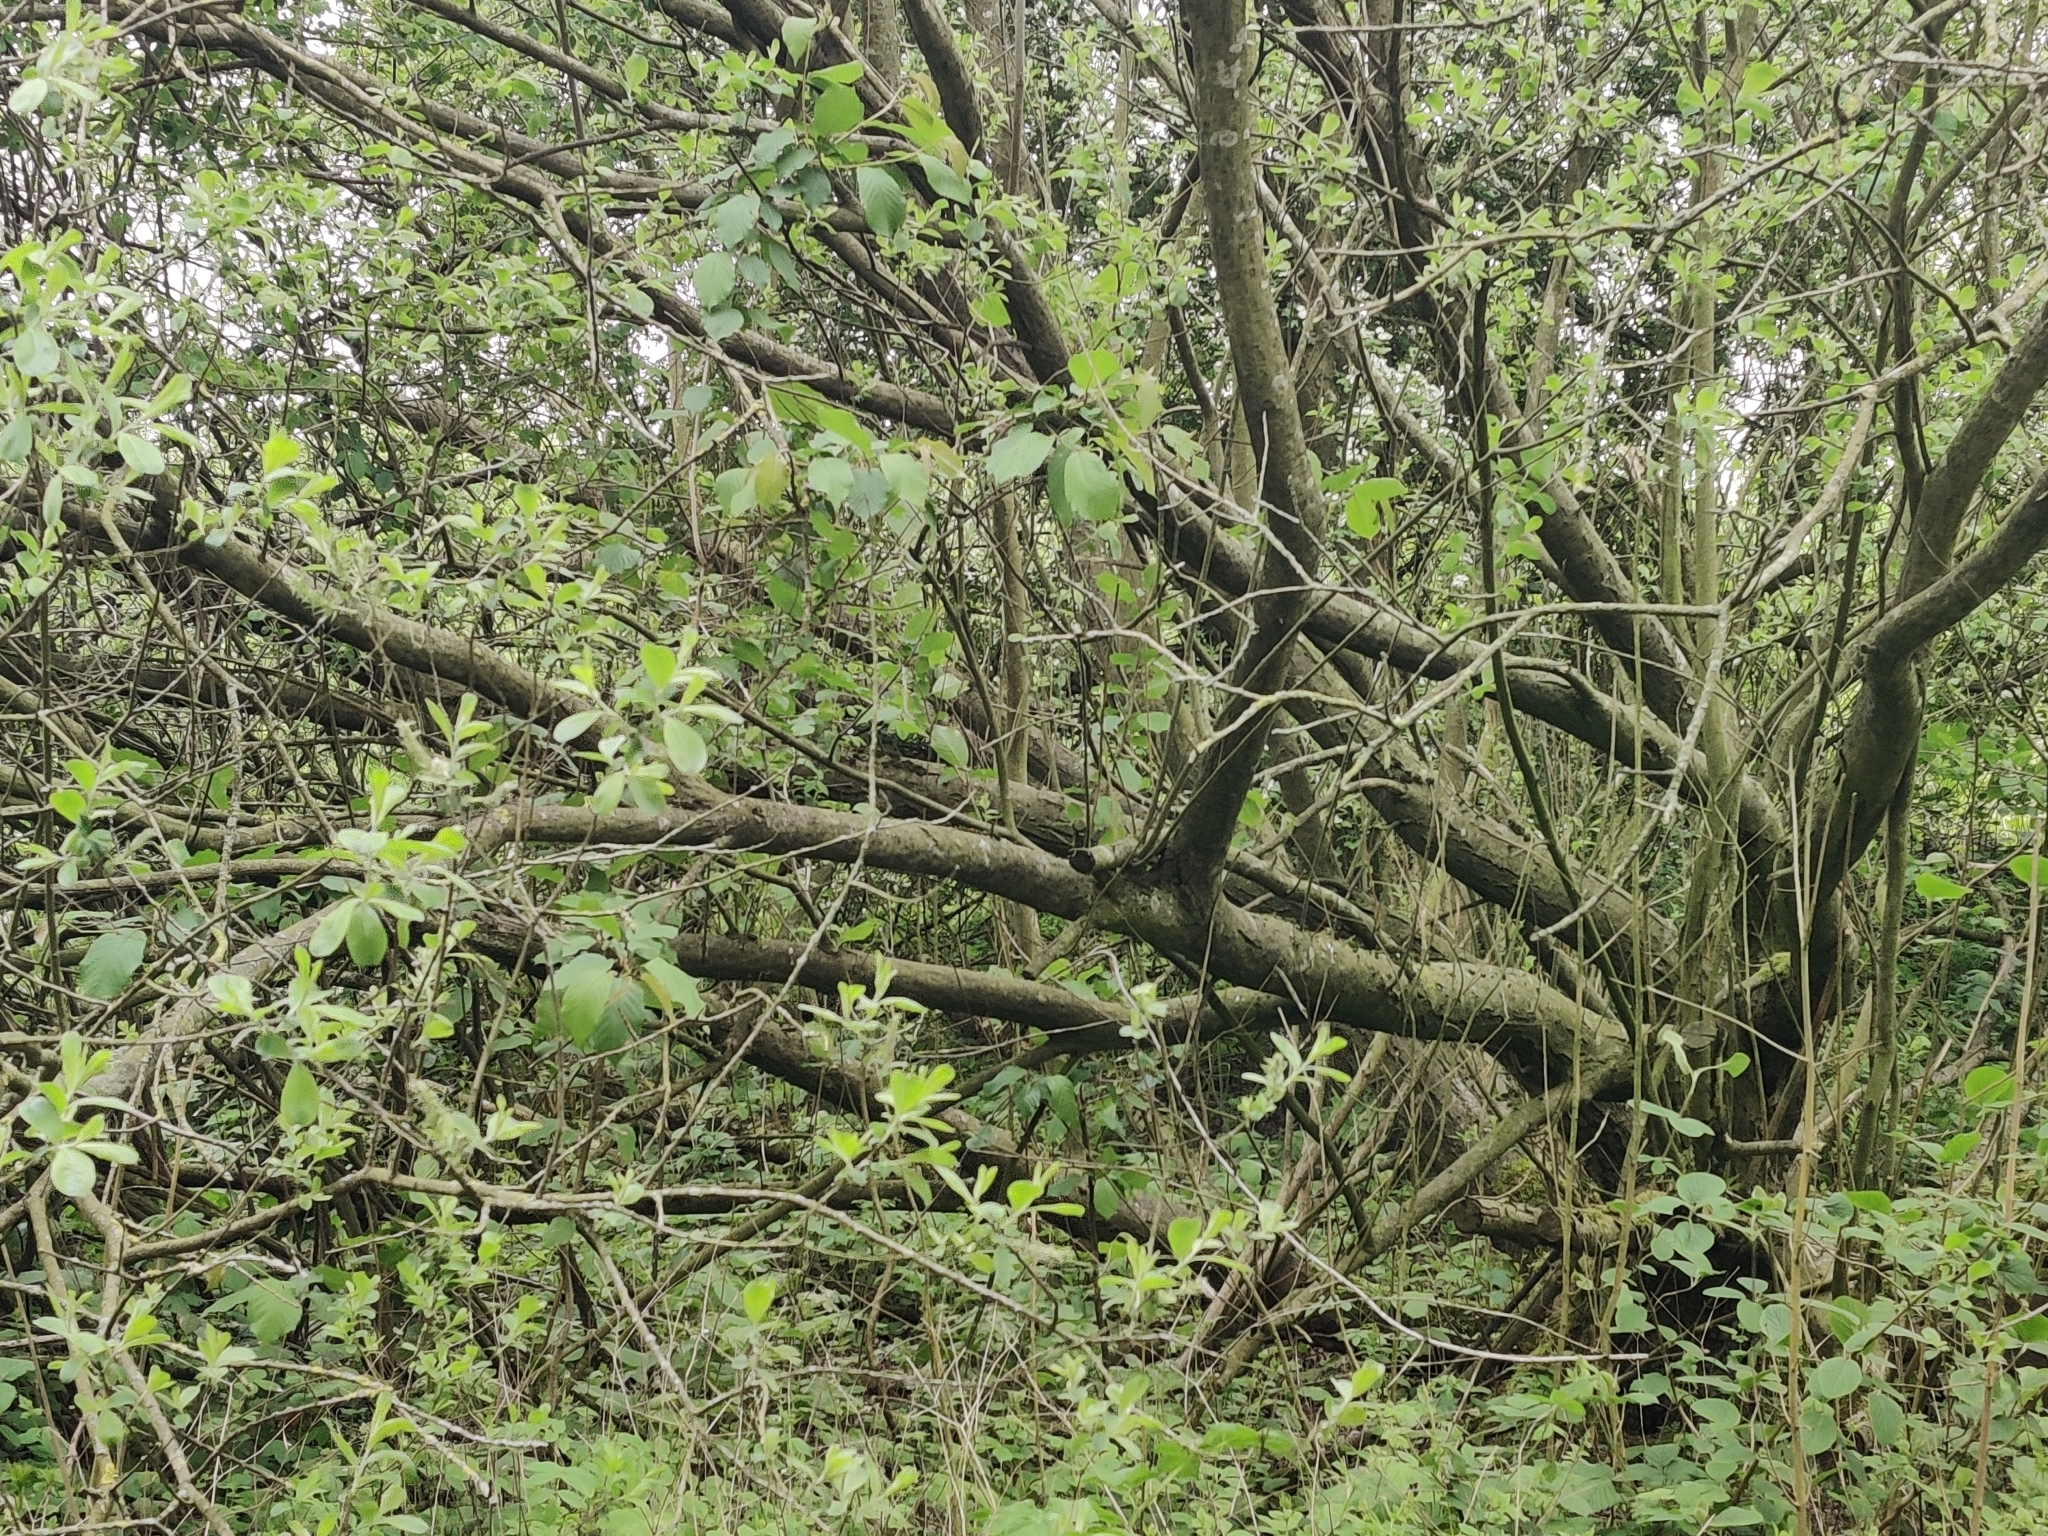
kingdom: Plantae
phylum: Tracheophyta
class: Magnoliopsida
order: Malpighiales
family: Salicaceae
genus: Salix
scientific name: Salix caprea
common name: Goat willow
